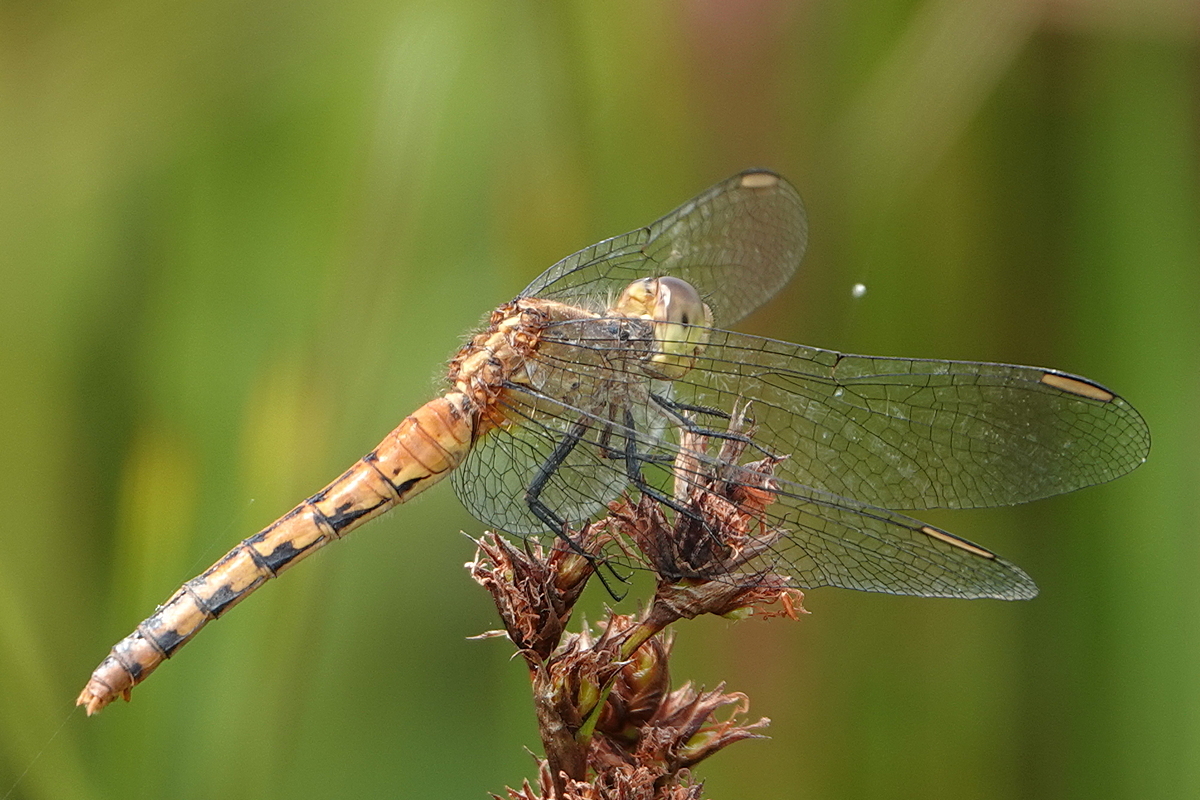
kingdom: Animalia
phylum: Arthropoda
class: Insecta
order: Odonata
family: Libellulidae
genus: Diplacodes
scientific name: Diplacodes melanopsis
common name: Black-faced percher
